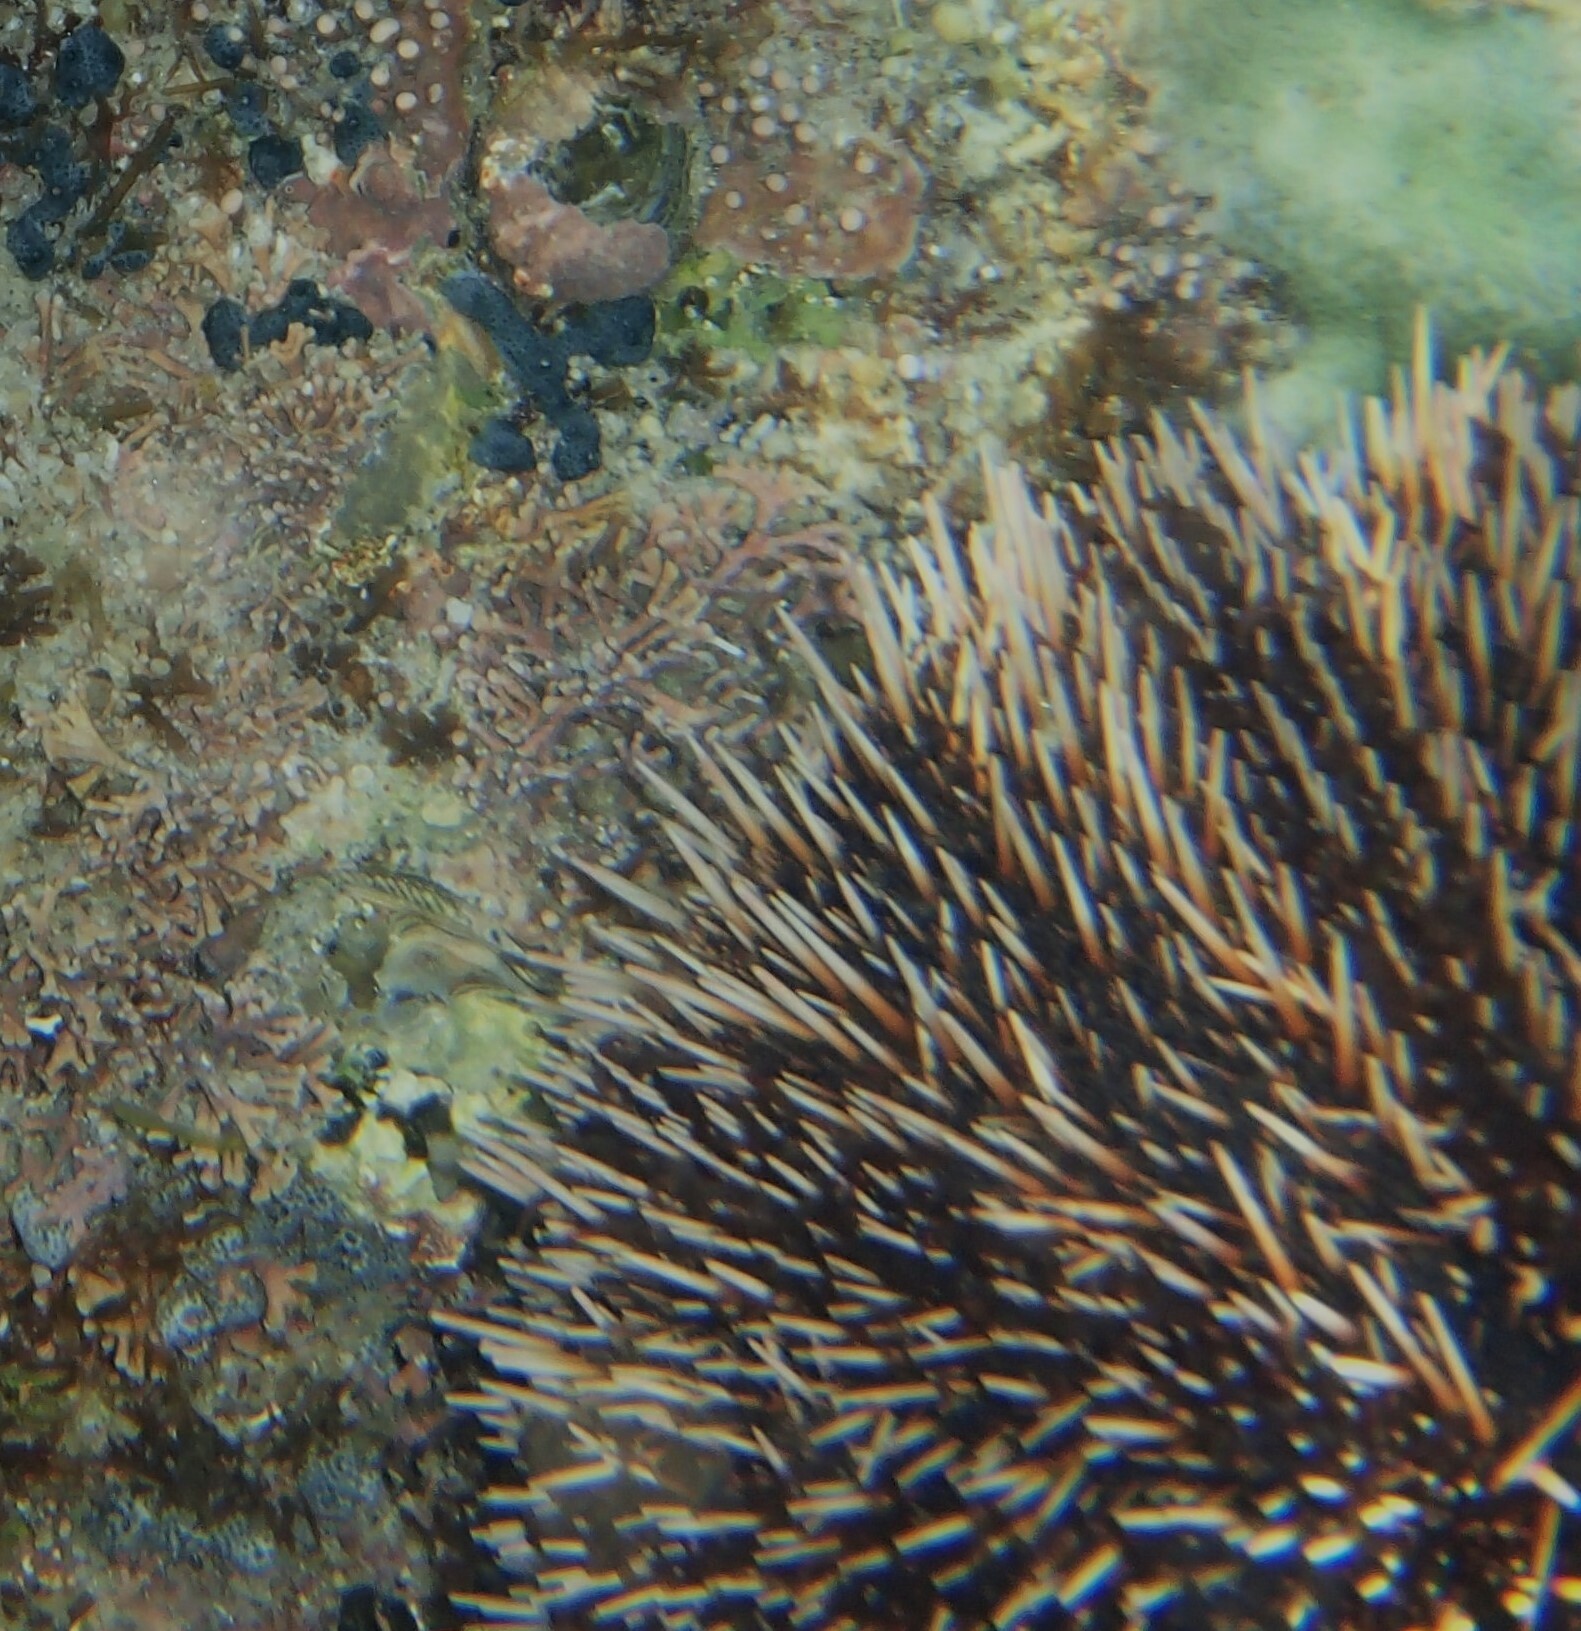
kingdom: Animalia
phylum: Echinodermata
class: Echinoidea
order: Camarodonta
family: Toxopneustidae
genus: Tripneustes
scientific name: Tripneustes depressus
